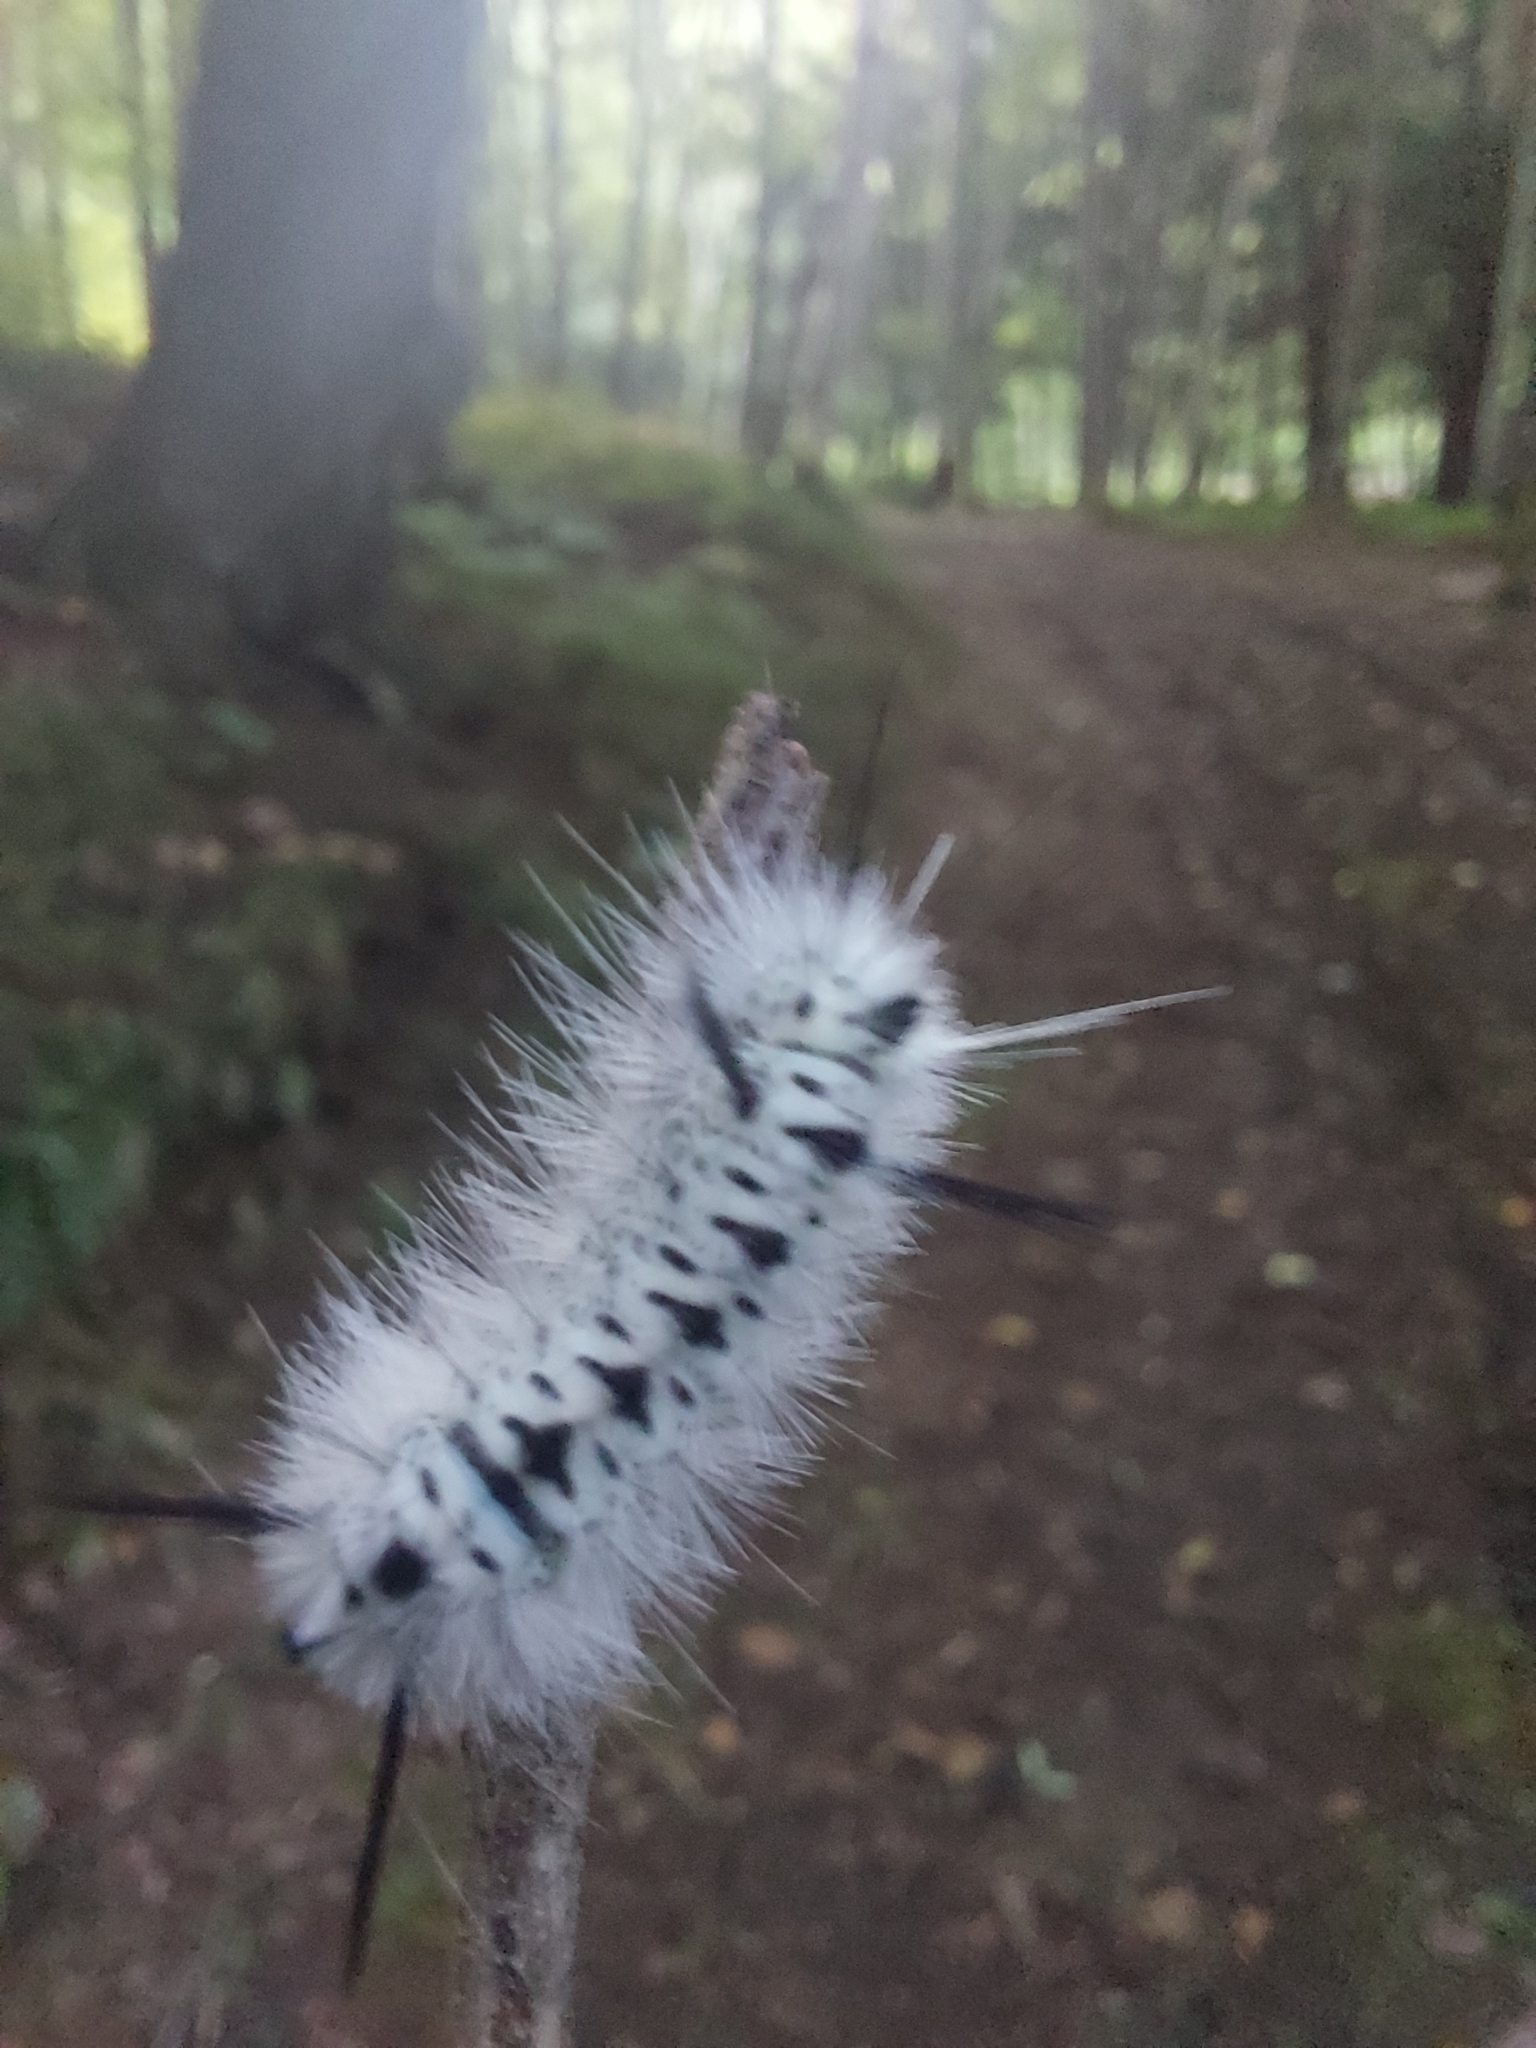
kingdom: Animalia
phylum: Arthropoda
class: Insecta
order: Lepidoptera
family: Erebidae
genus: Lophocampa
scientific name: Lophocampa caryae
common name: Hickory tussock moth
